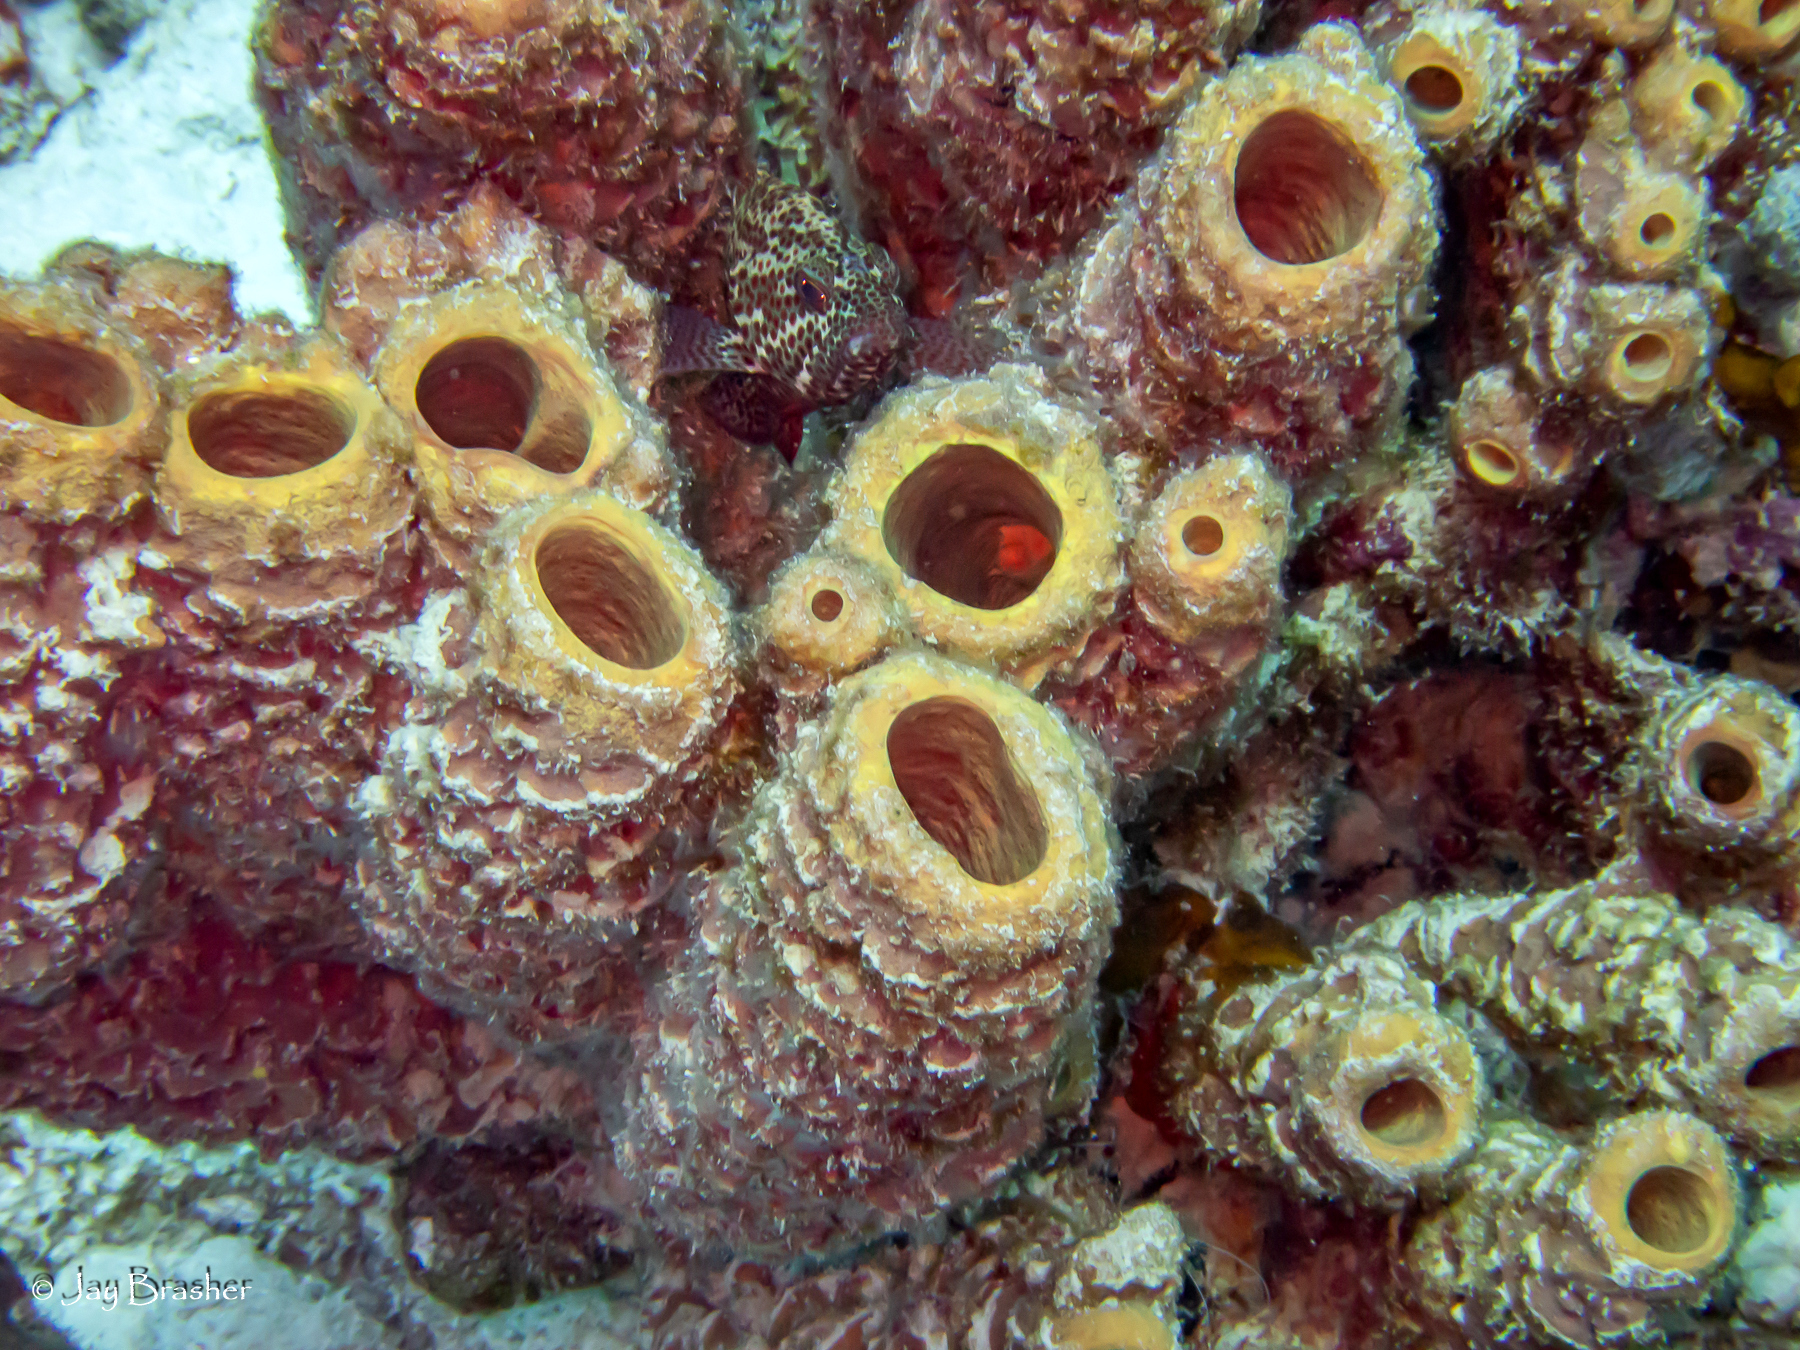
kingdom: Animalia
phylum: Chordata
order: Perciformes
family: Serranidae
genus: Cephalopholis
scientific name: Cephalopholis cruentata
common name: Graysby
